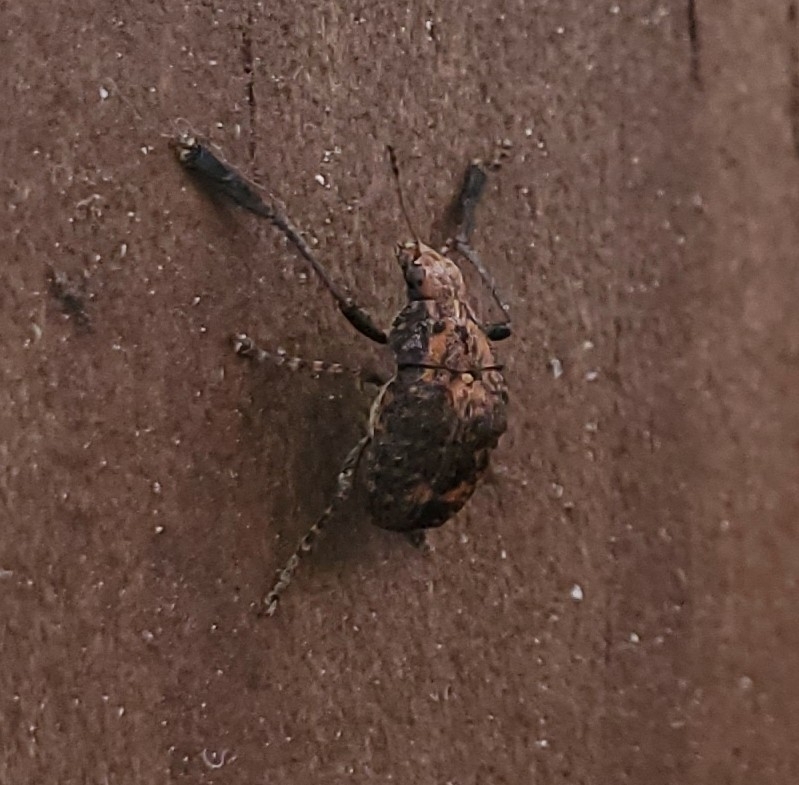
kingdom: Animalia
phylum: Arthropoda
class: Insecta
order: Coleoptera
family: Anthribidae
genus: Araecerus
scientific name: Araecerus
